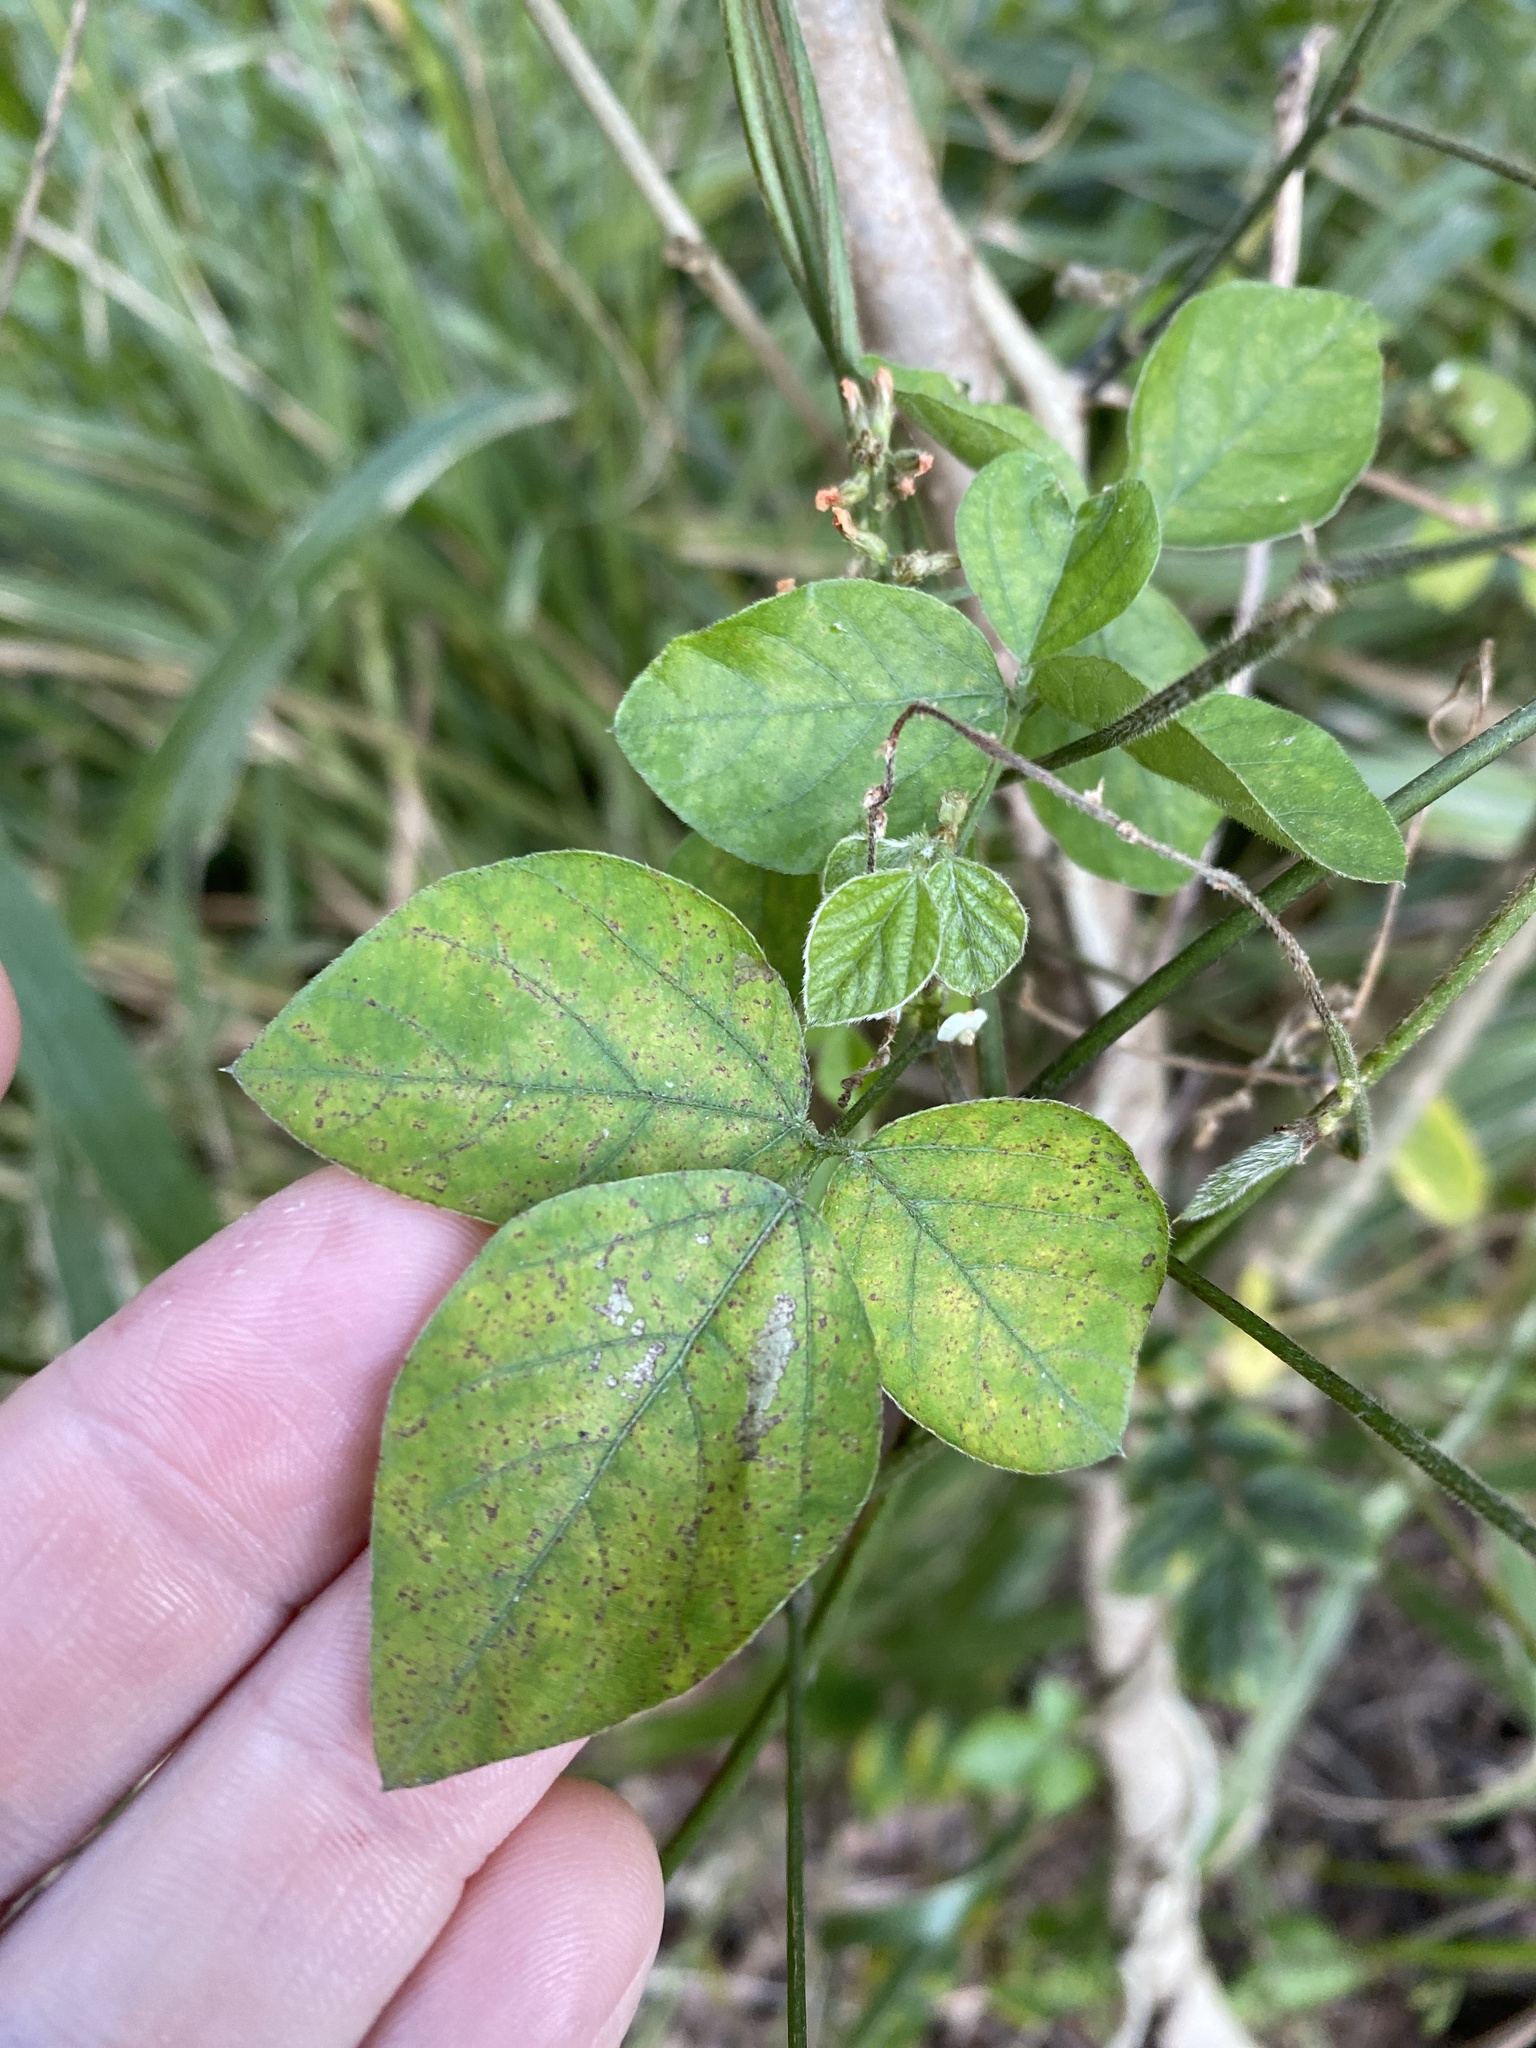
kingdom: Plantae
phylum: Tracheophyta
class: Magnoliopsida
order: Fabales
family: Fabaceae
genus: Neonotonia
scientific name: Neonotonia wightii
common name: Perennial soybean
